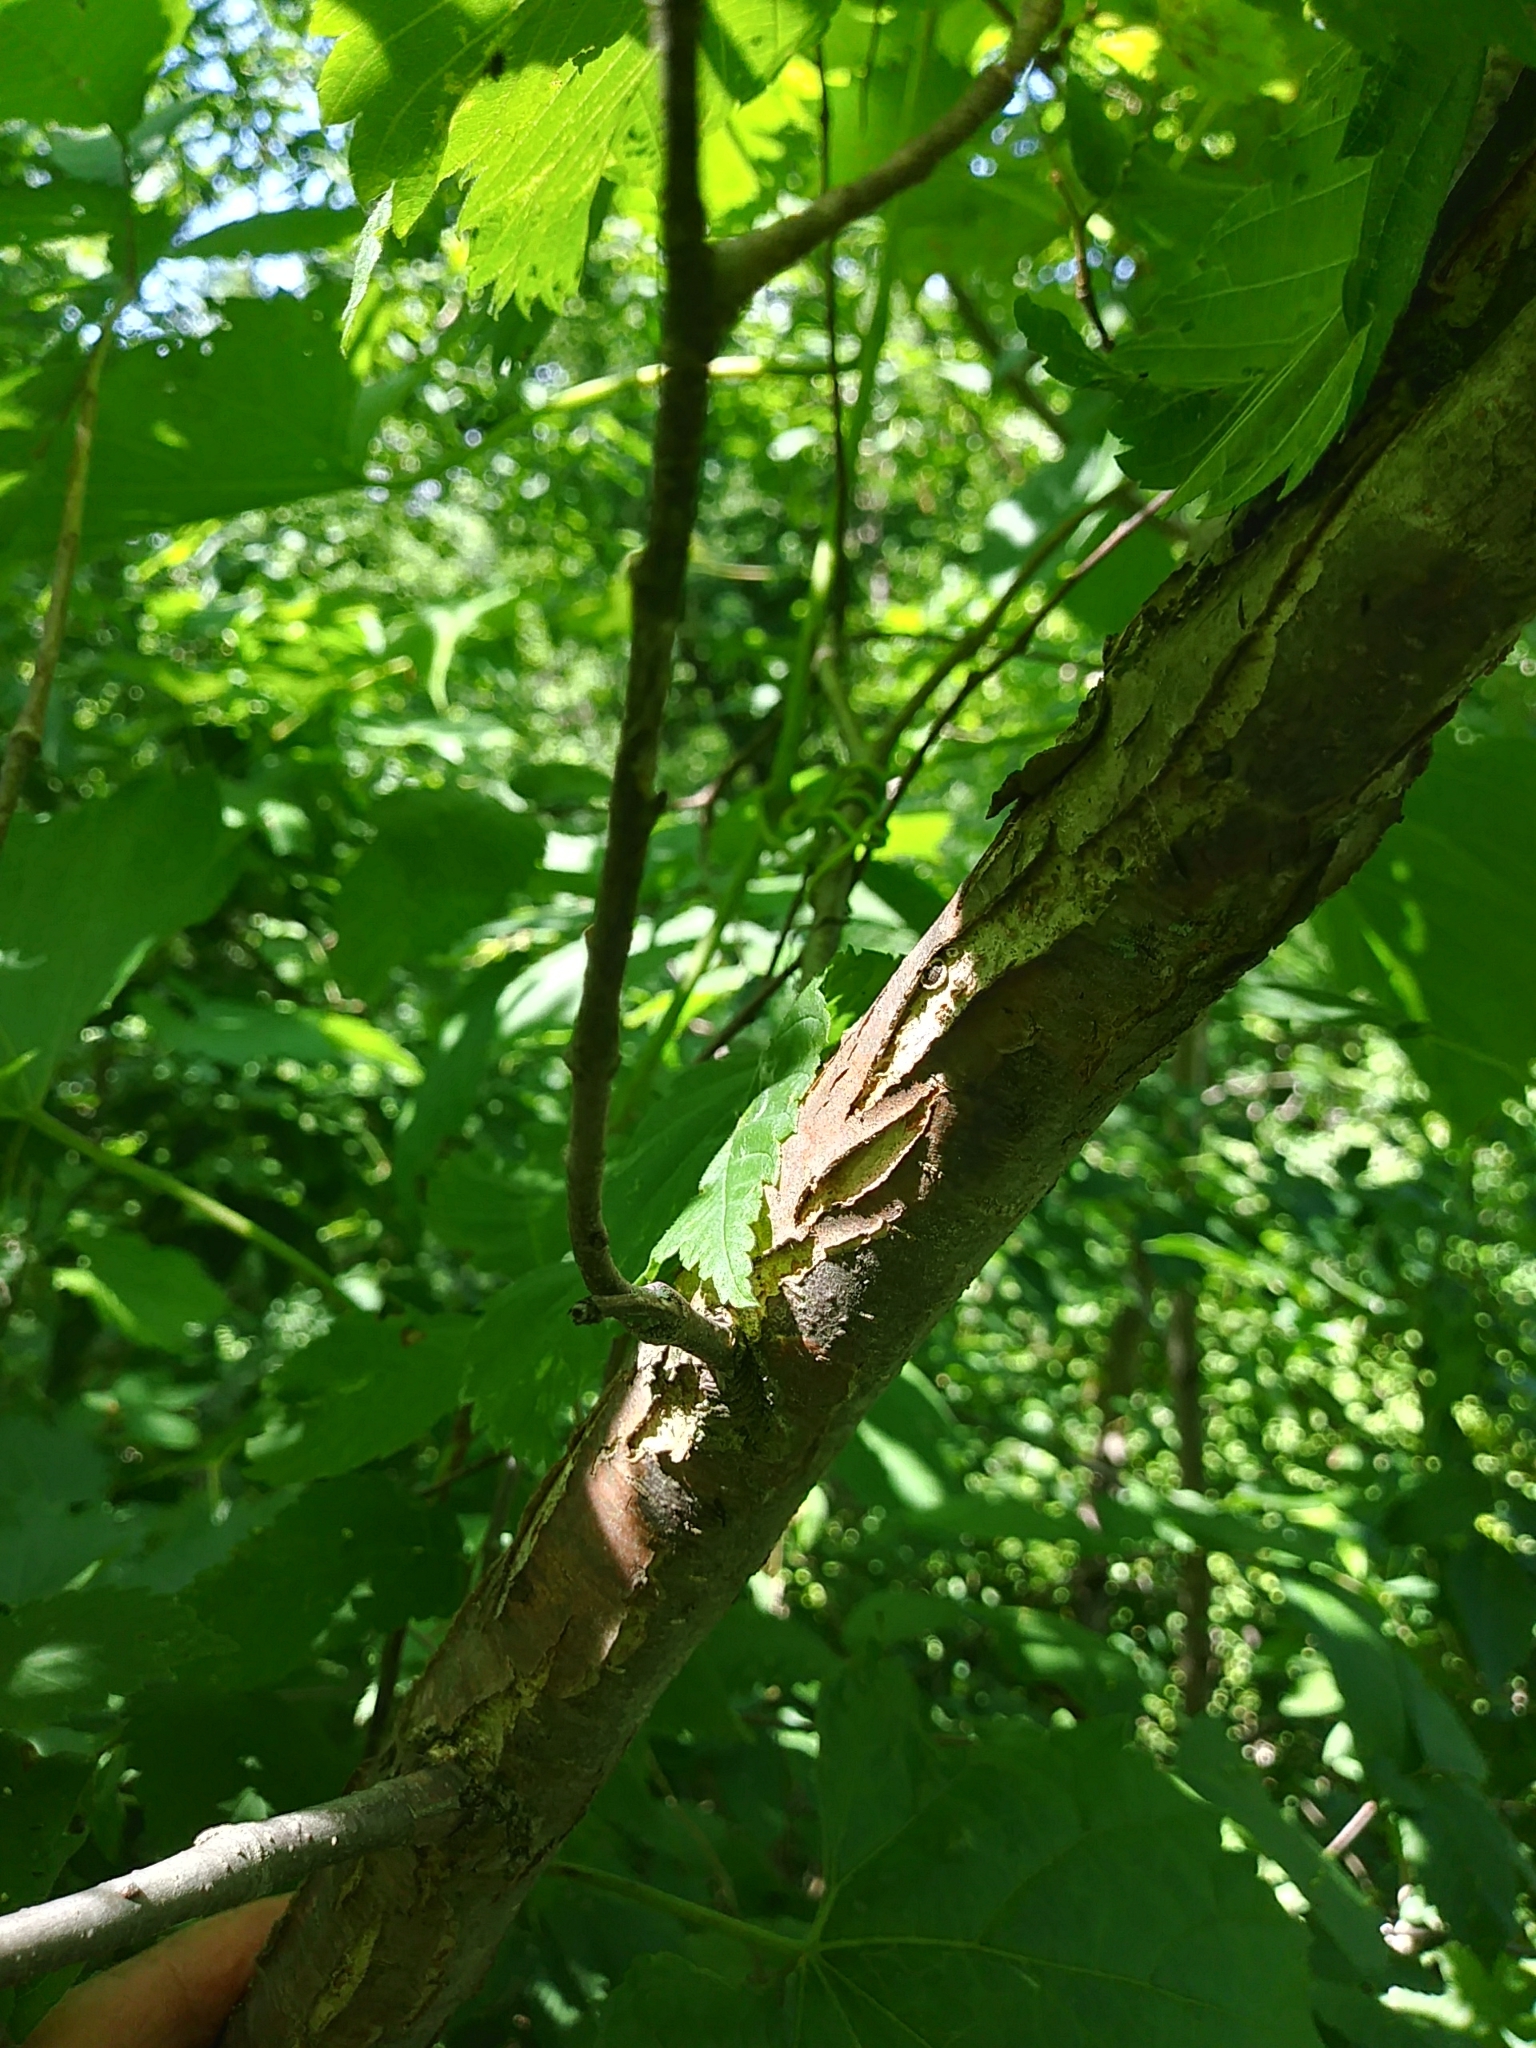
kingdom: Plantae
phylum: Tracheophyta
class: Magnoliopsida
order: Rosales
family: Ulmaceae
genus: Ulmus
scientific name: Ulmus americana
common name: American elm
